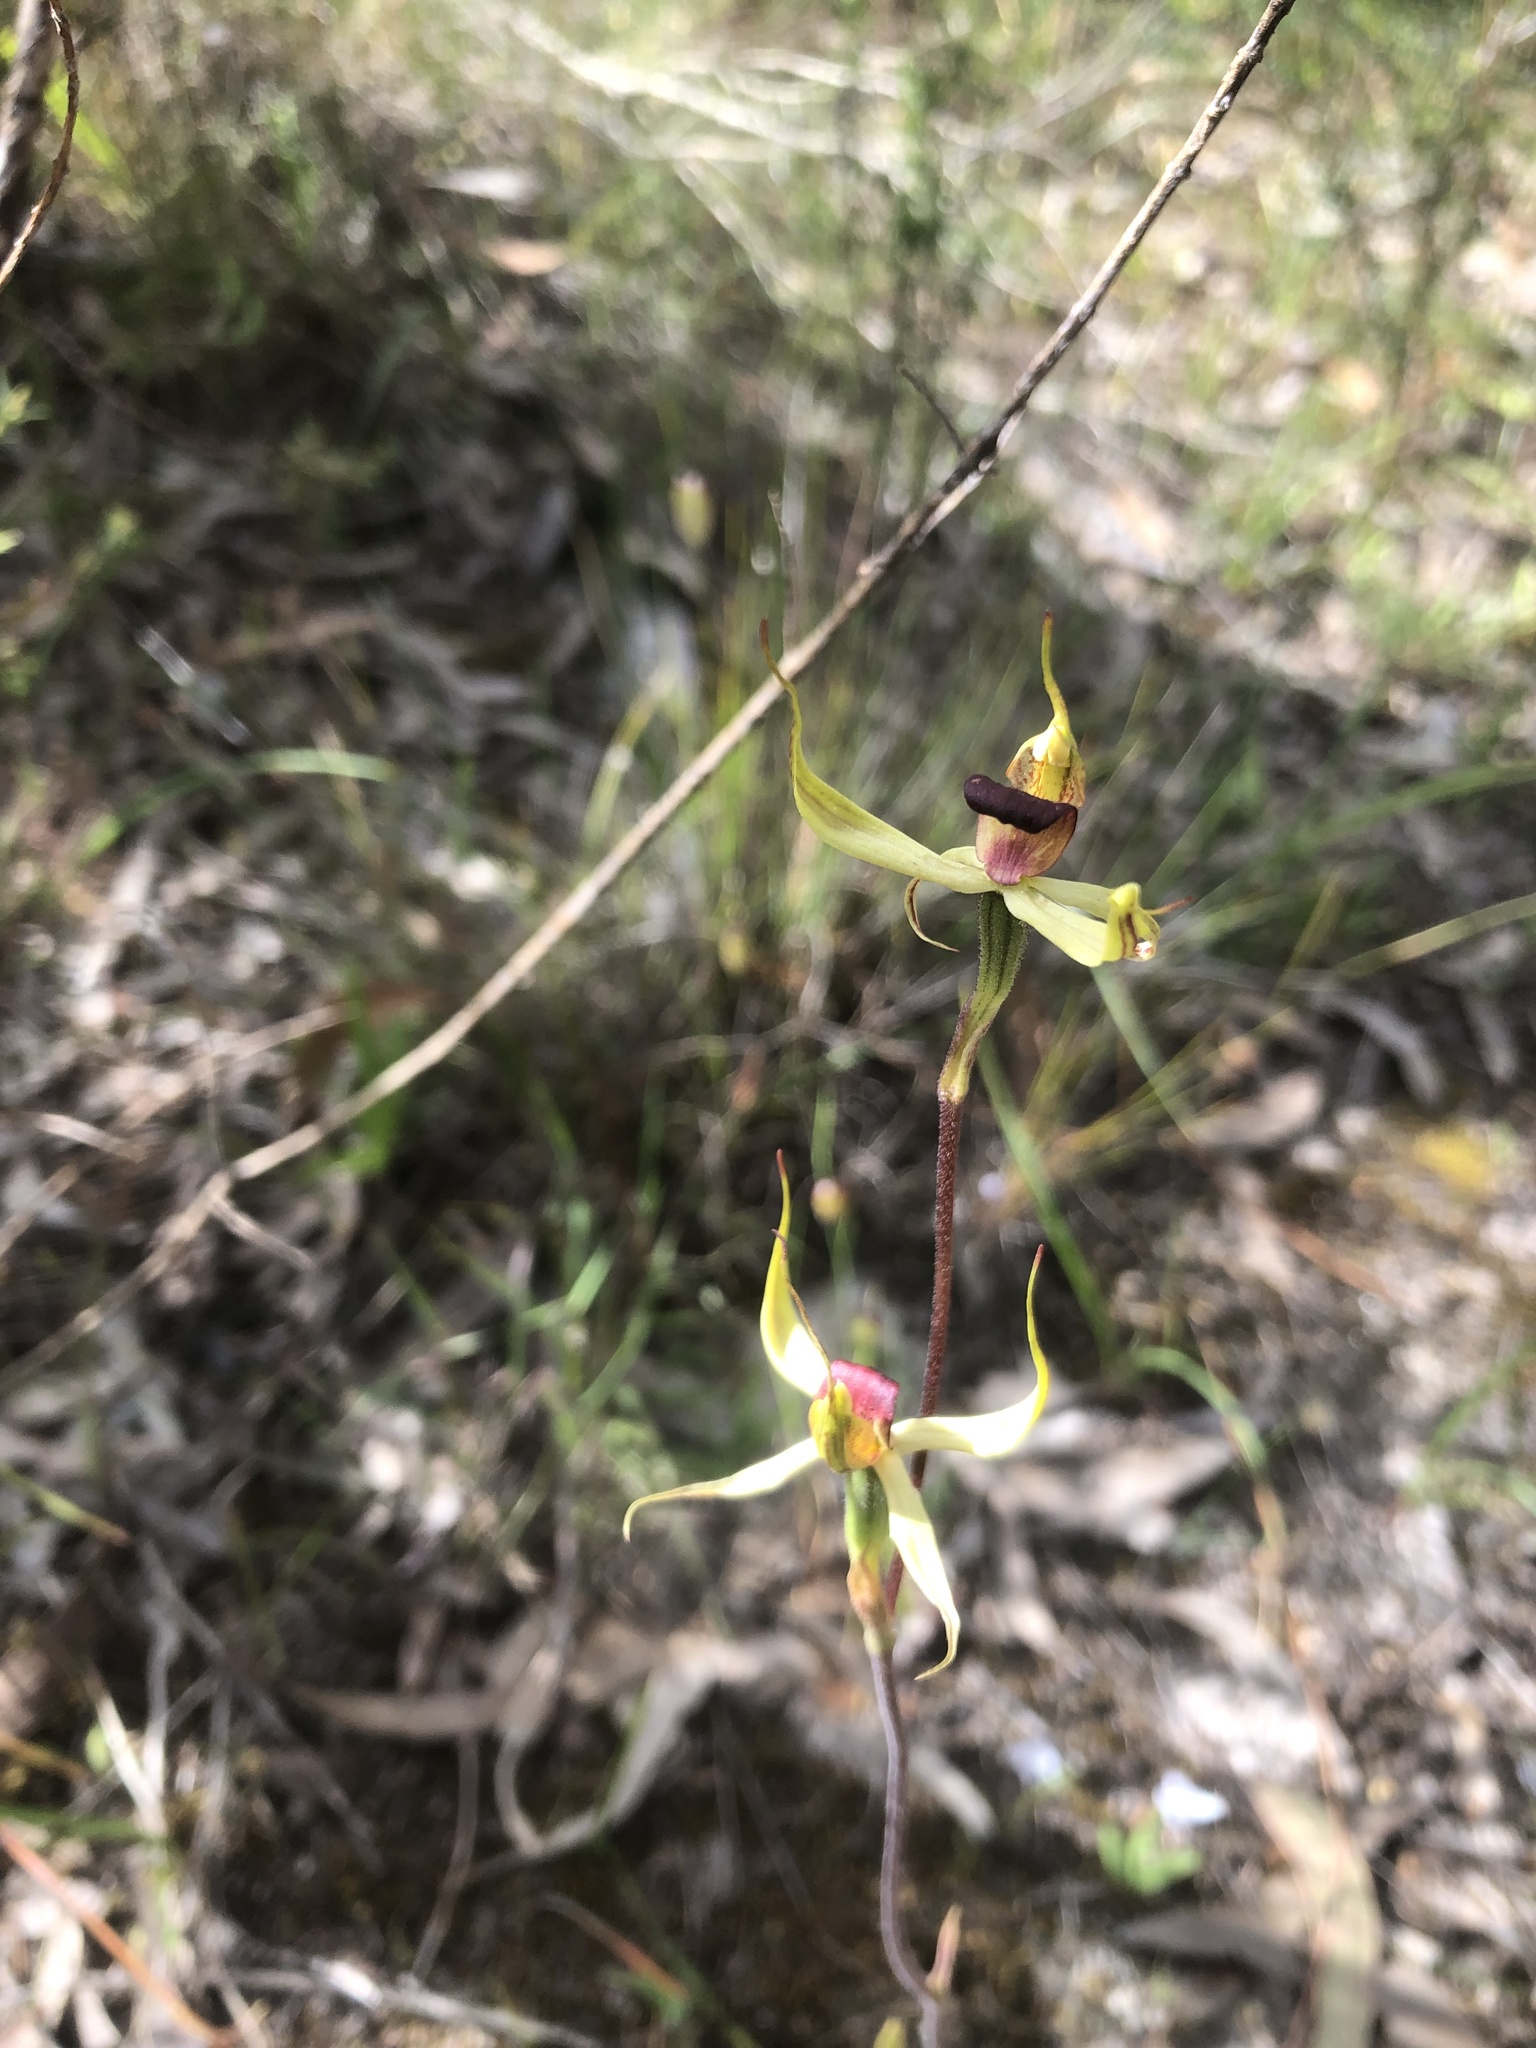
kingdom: Plantae
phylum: Tracheophyta
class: Liliopsida
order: Asparagales
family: Orchidaceae
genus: Caladenia
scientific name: Caladenia leptochila
